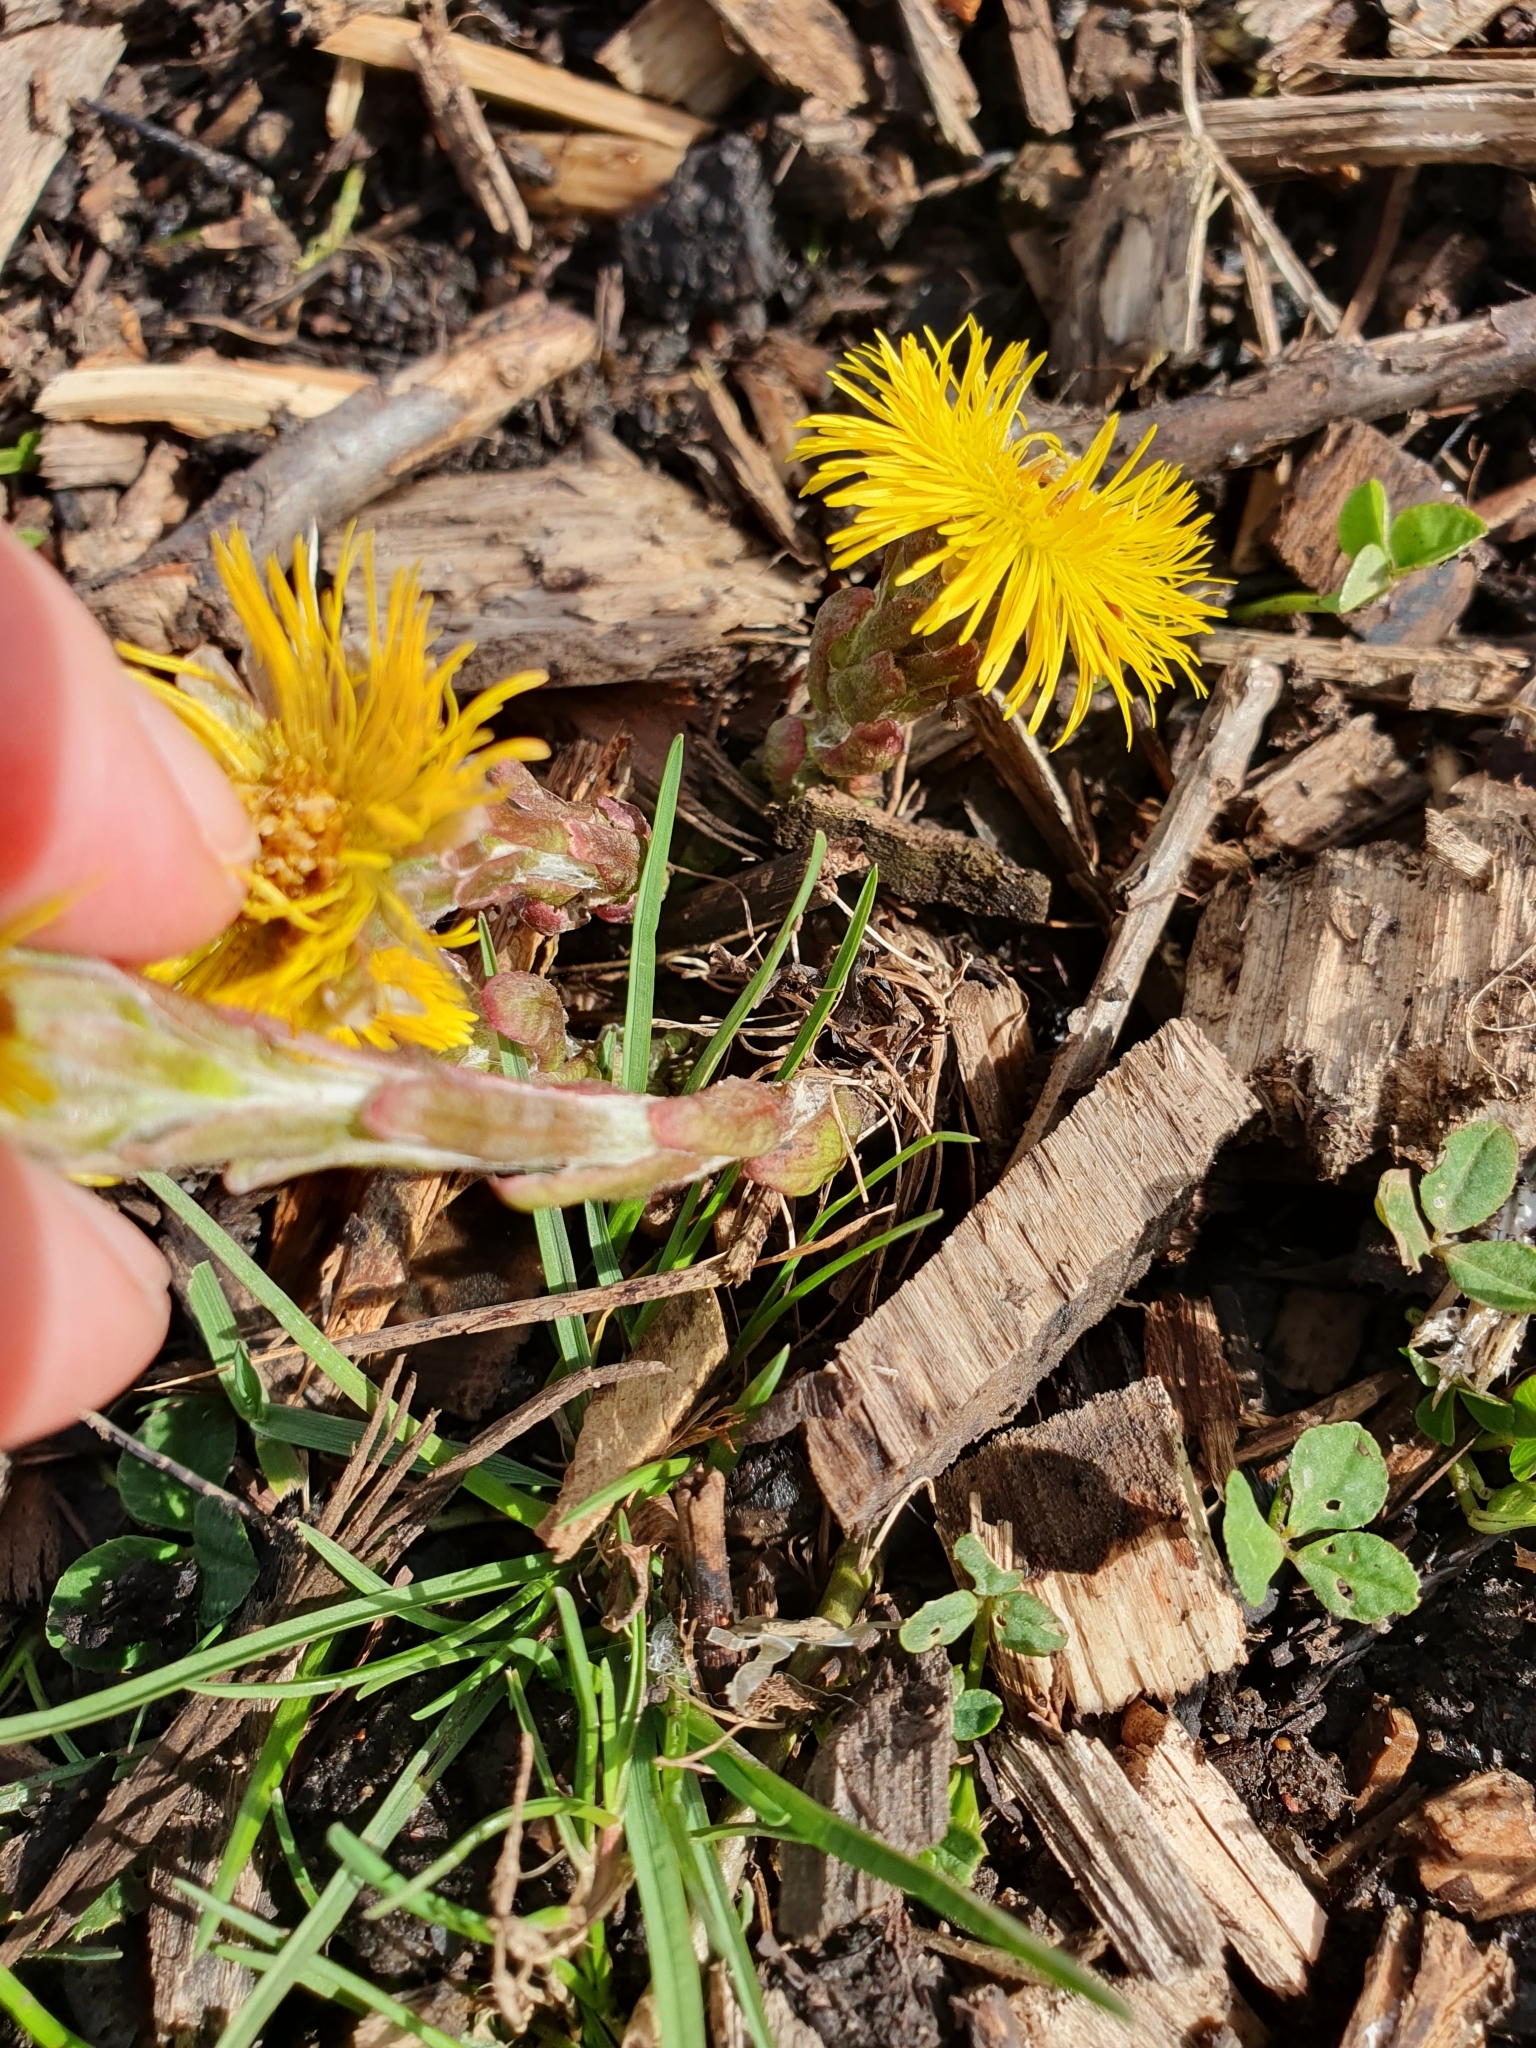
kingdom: Plantae
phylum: Tracheophyta
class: Magnoliopsida
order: Asterales
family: Asteraceae
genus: Tussilago
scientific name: Tussilago farfara
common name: Coltsfoot
